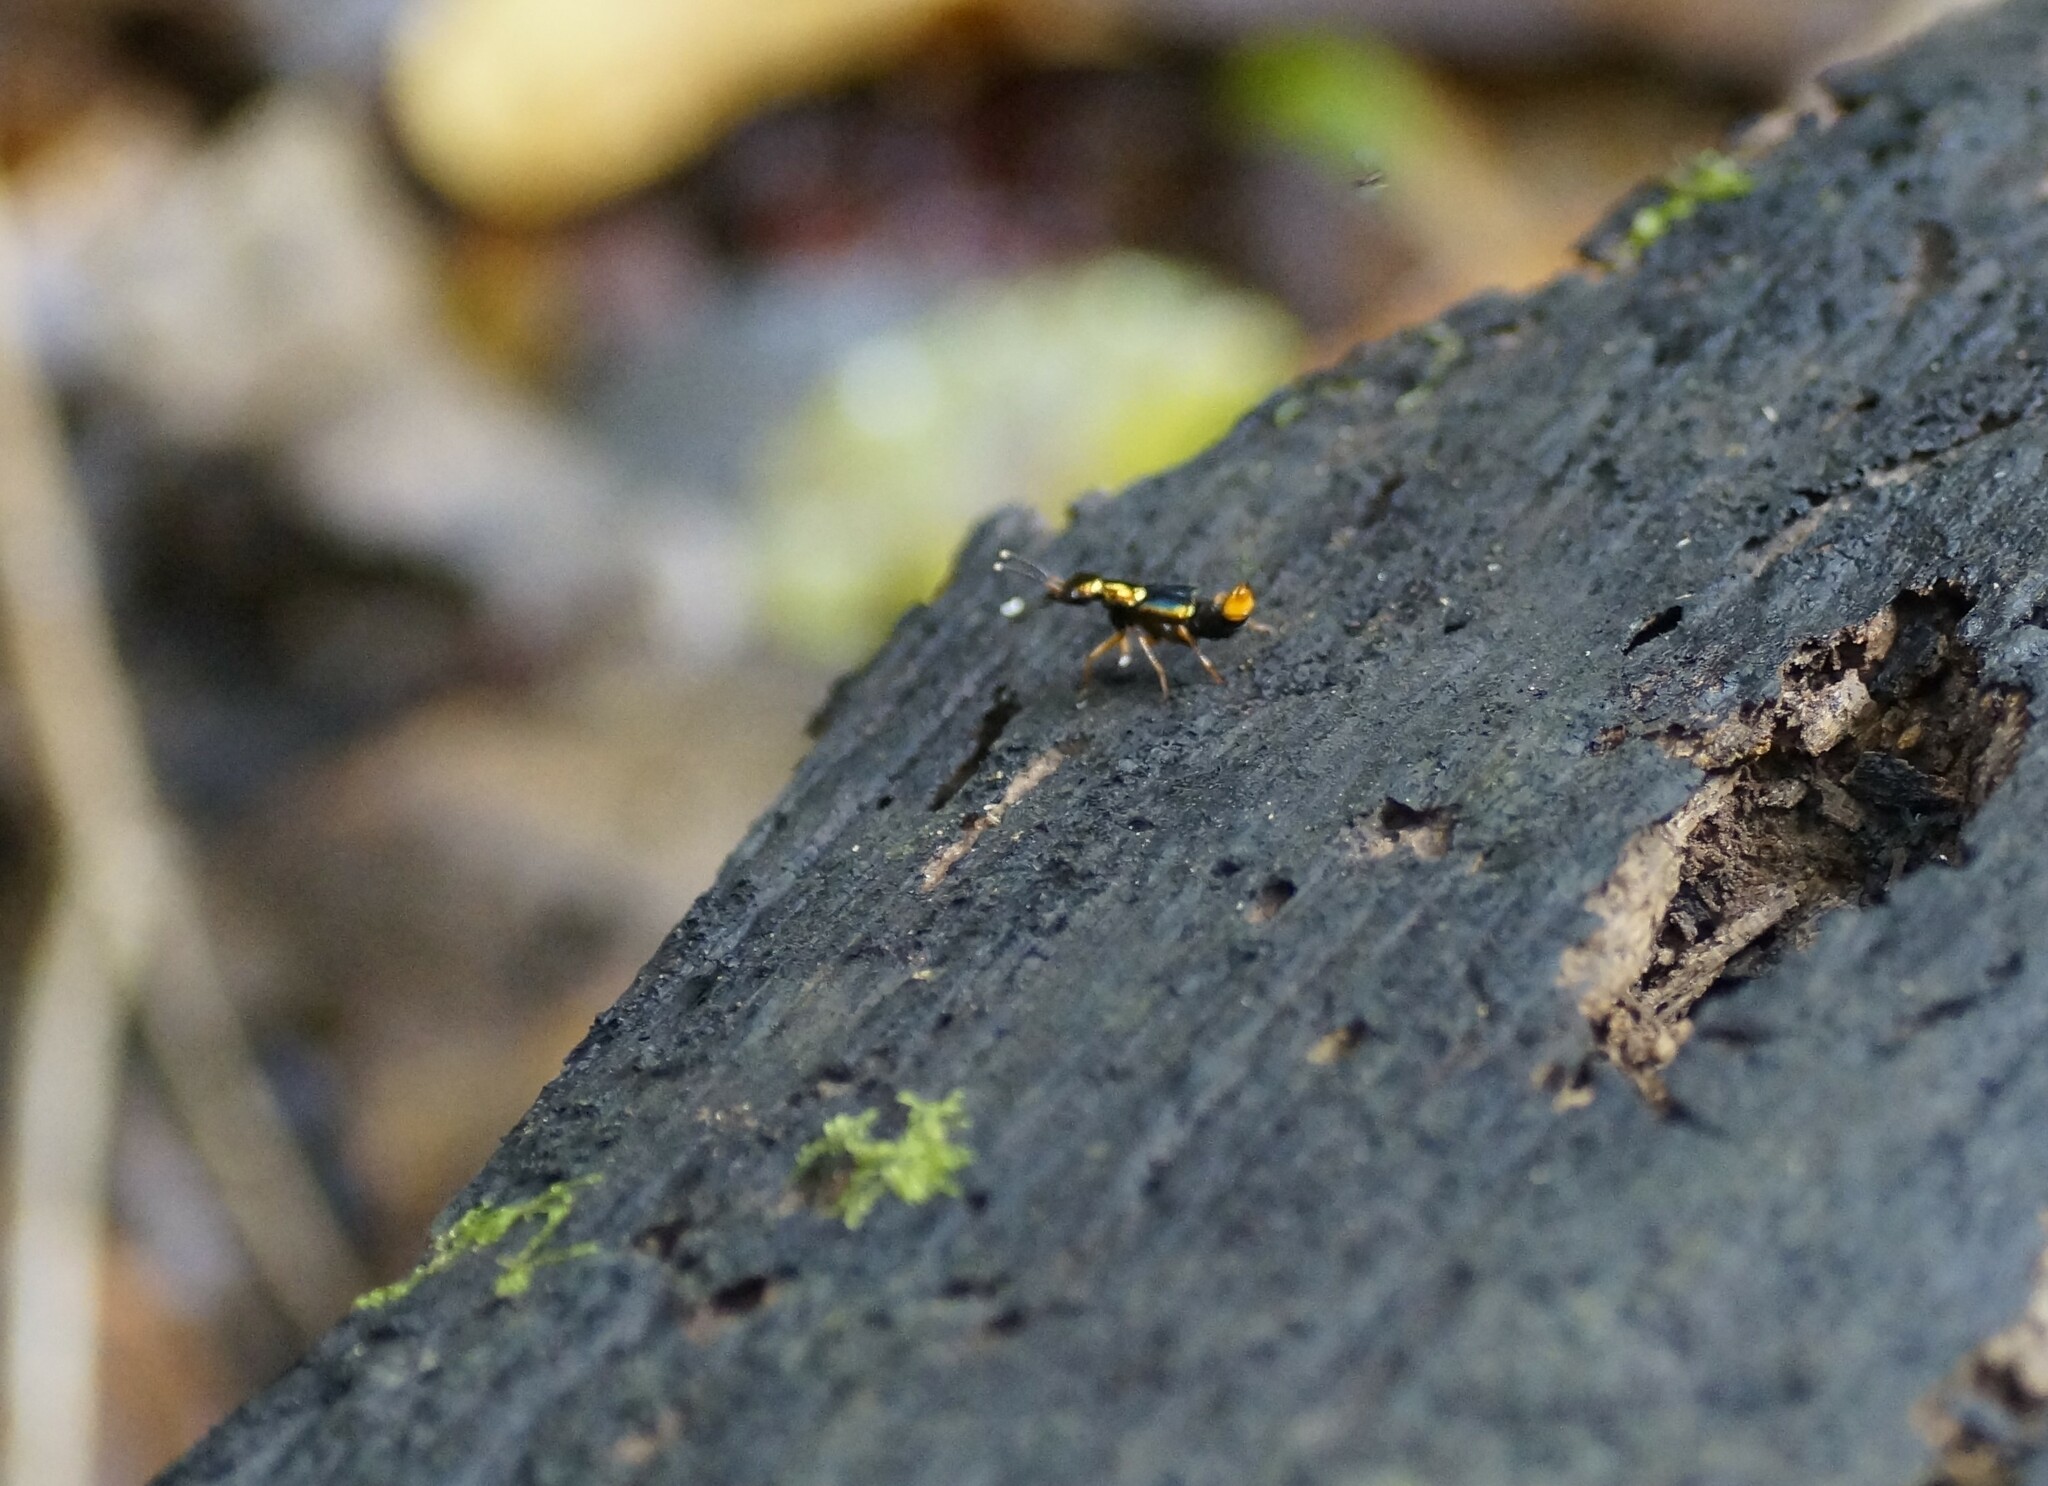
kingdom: Animalia
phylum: Arthropoda
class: Insecta
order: Coleoptera
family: Staphylinidae
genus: Actinus
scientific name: Actinus imperialis
